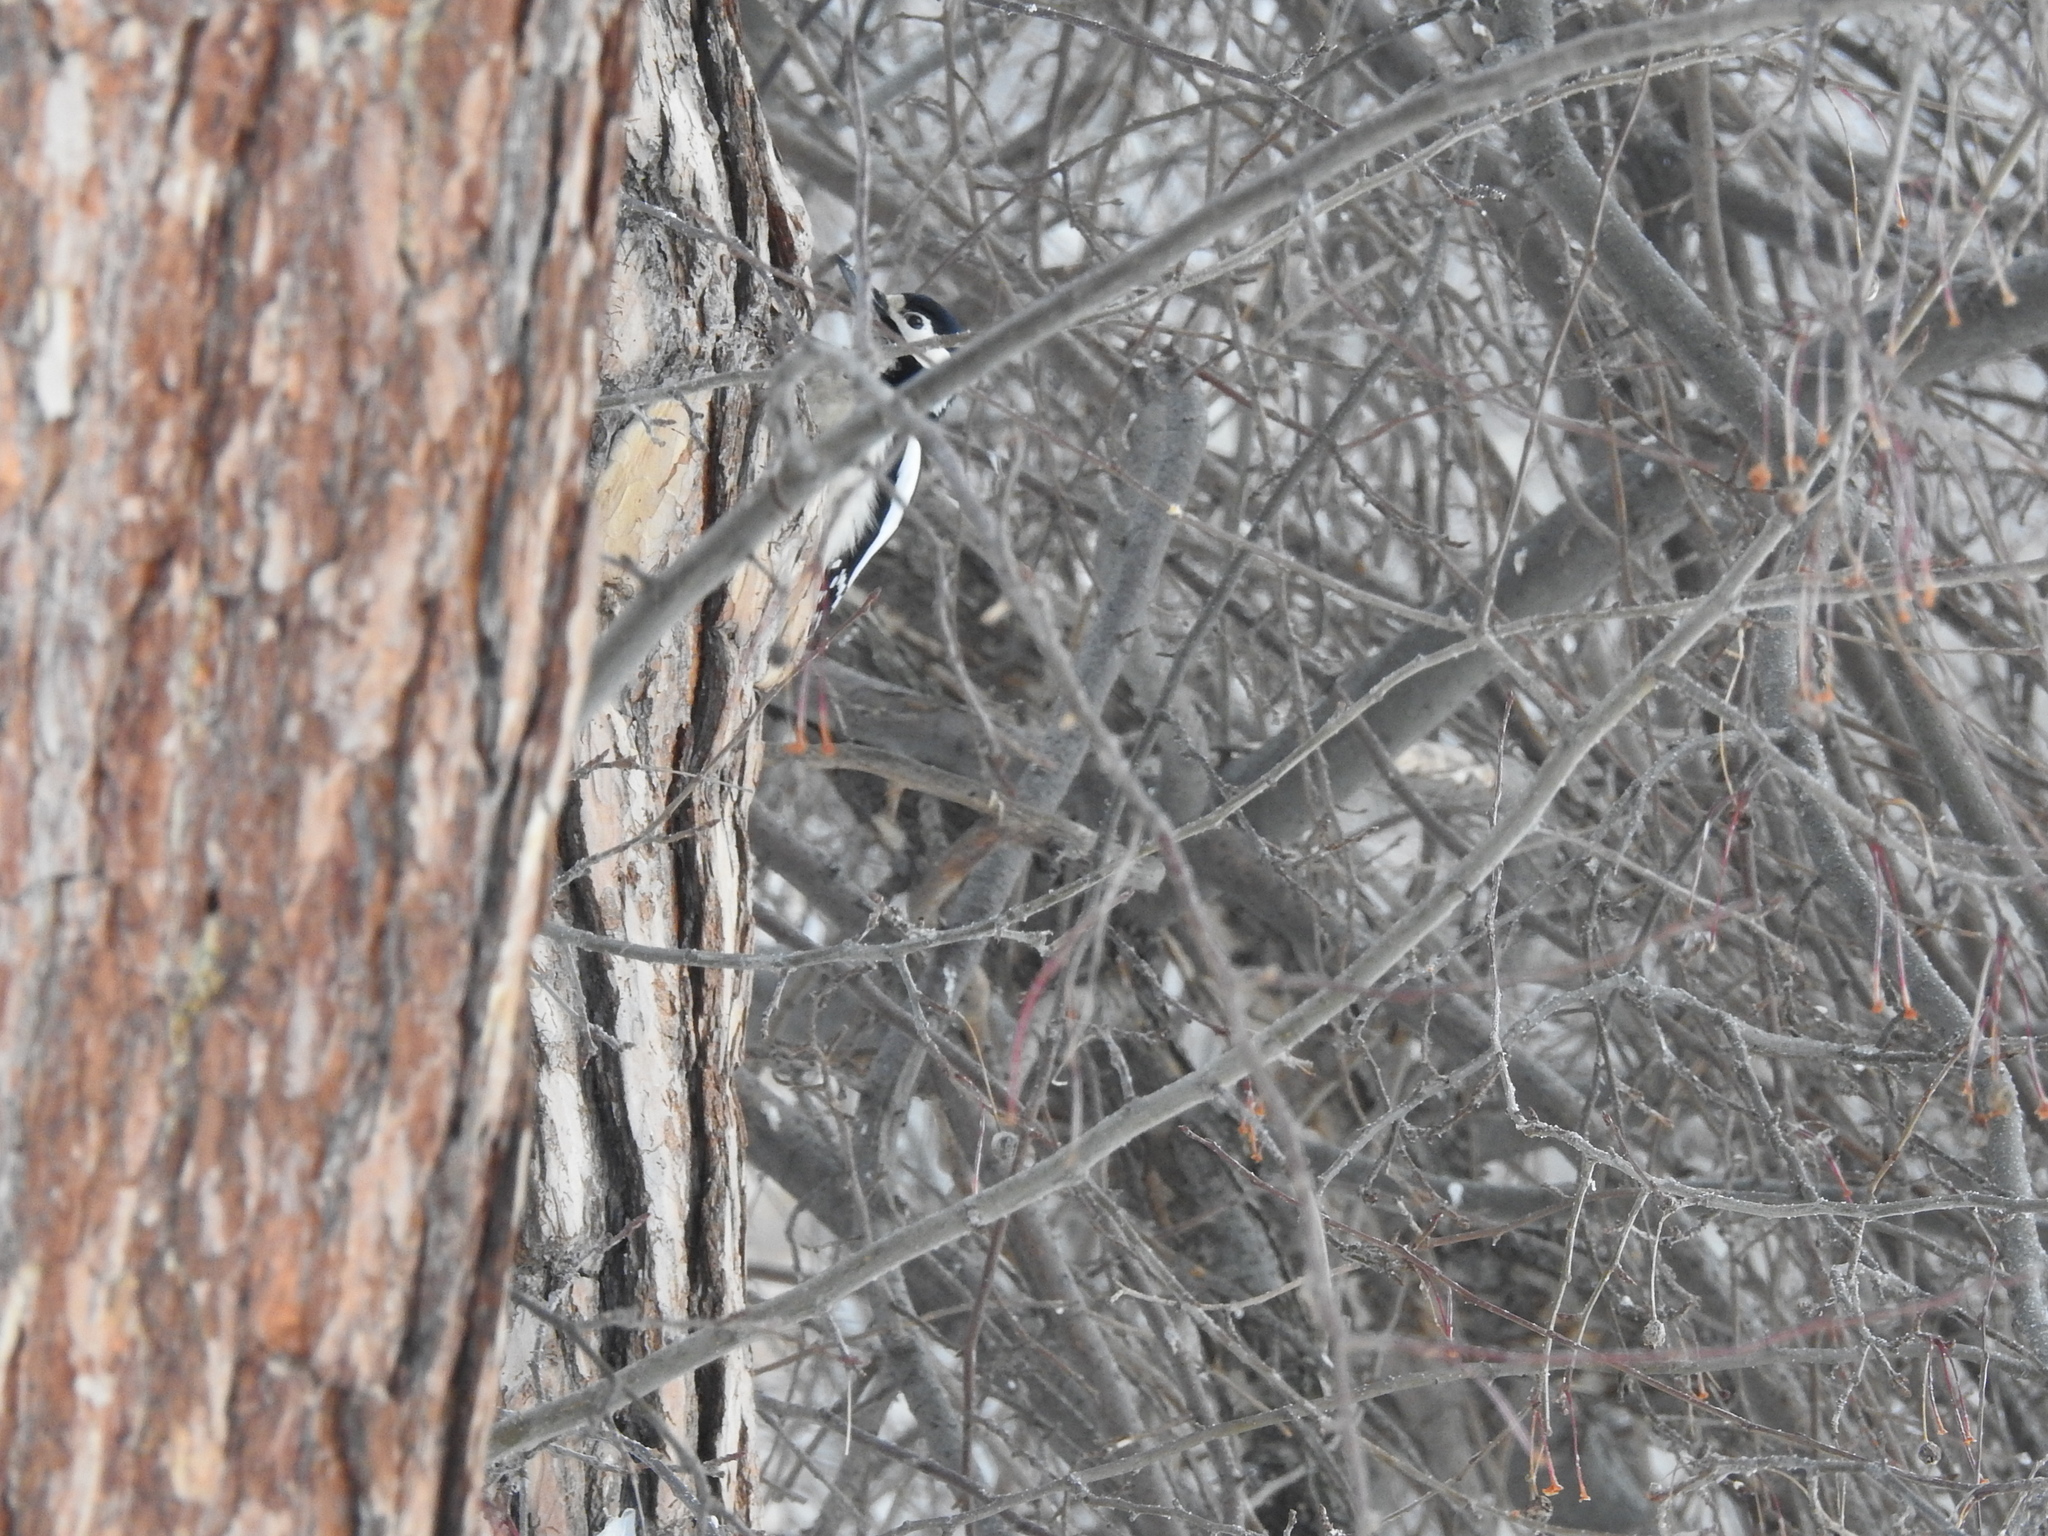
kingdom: Animalia
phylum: Chordata
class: Aves
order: Piciformes
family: Picidae
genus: Dendrocopos
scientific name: Dendrocopos major
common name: Great spotted woodpecker
